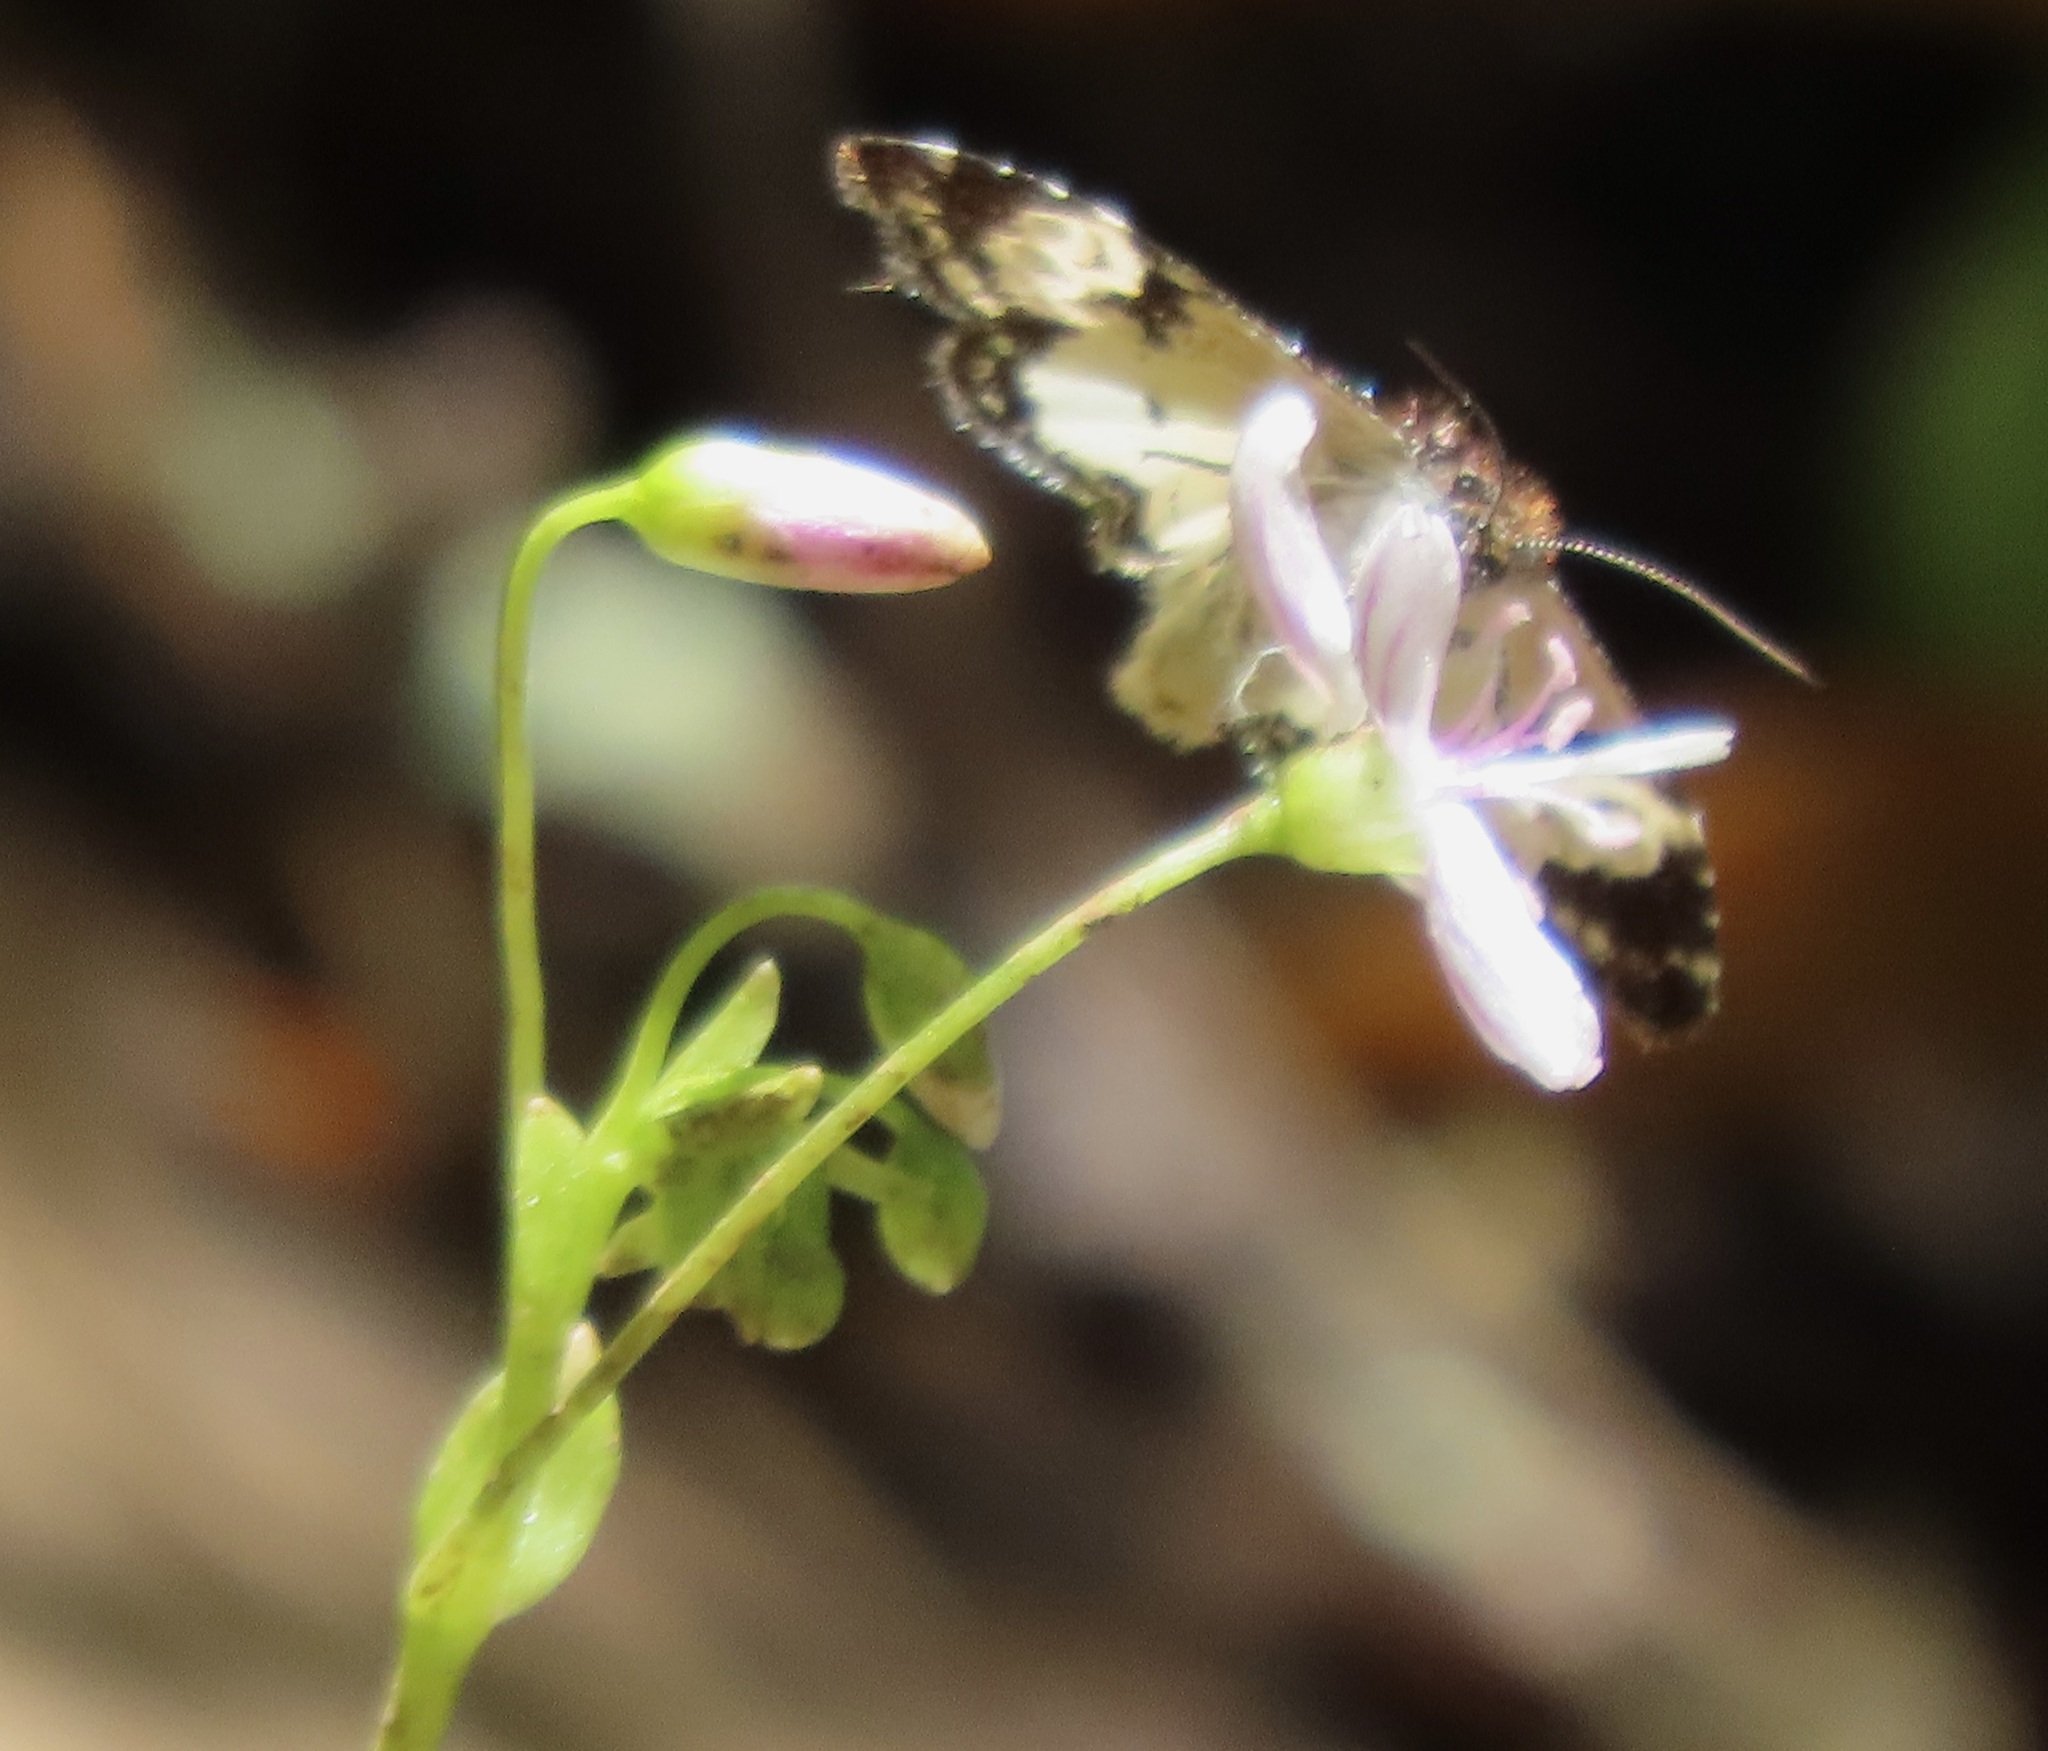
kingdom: Animalia
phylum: Arthropoda
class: Insecta
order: Lepidoptera
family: Noctuidae
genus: Annaphila
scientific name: Annaphila diva
